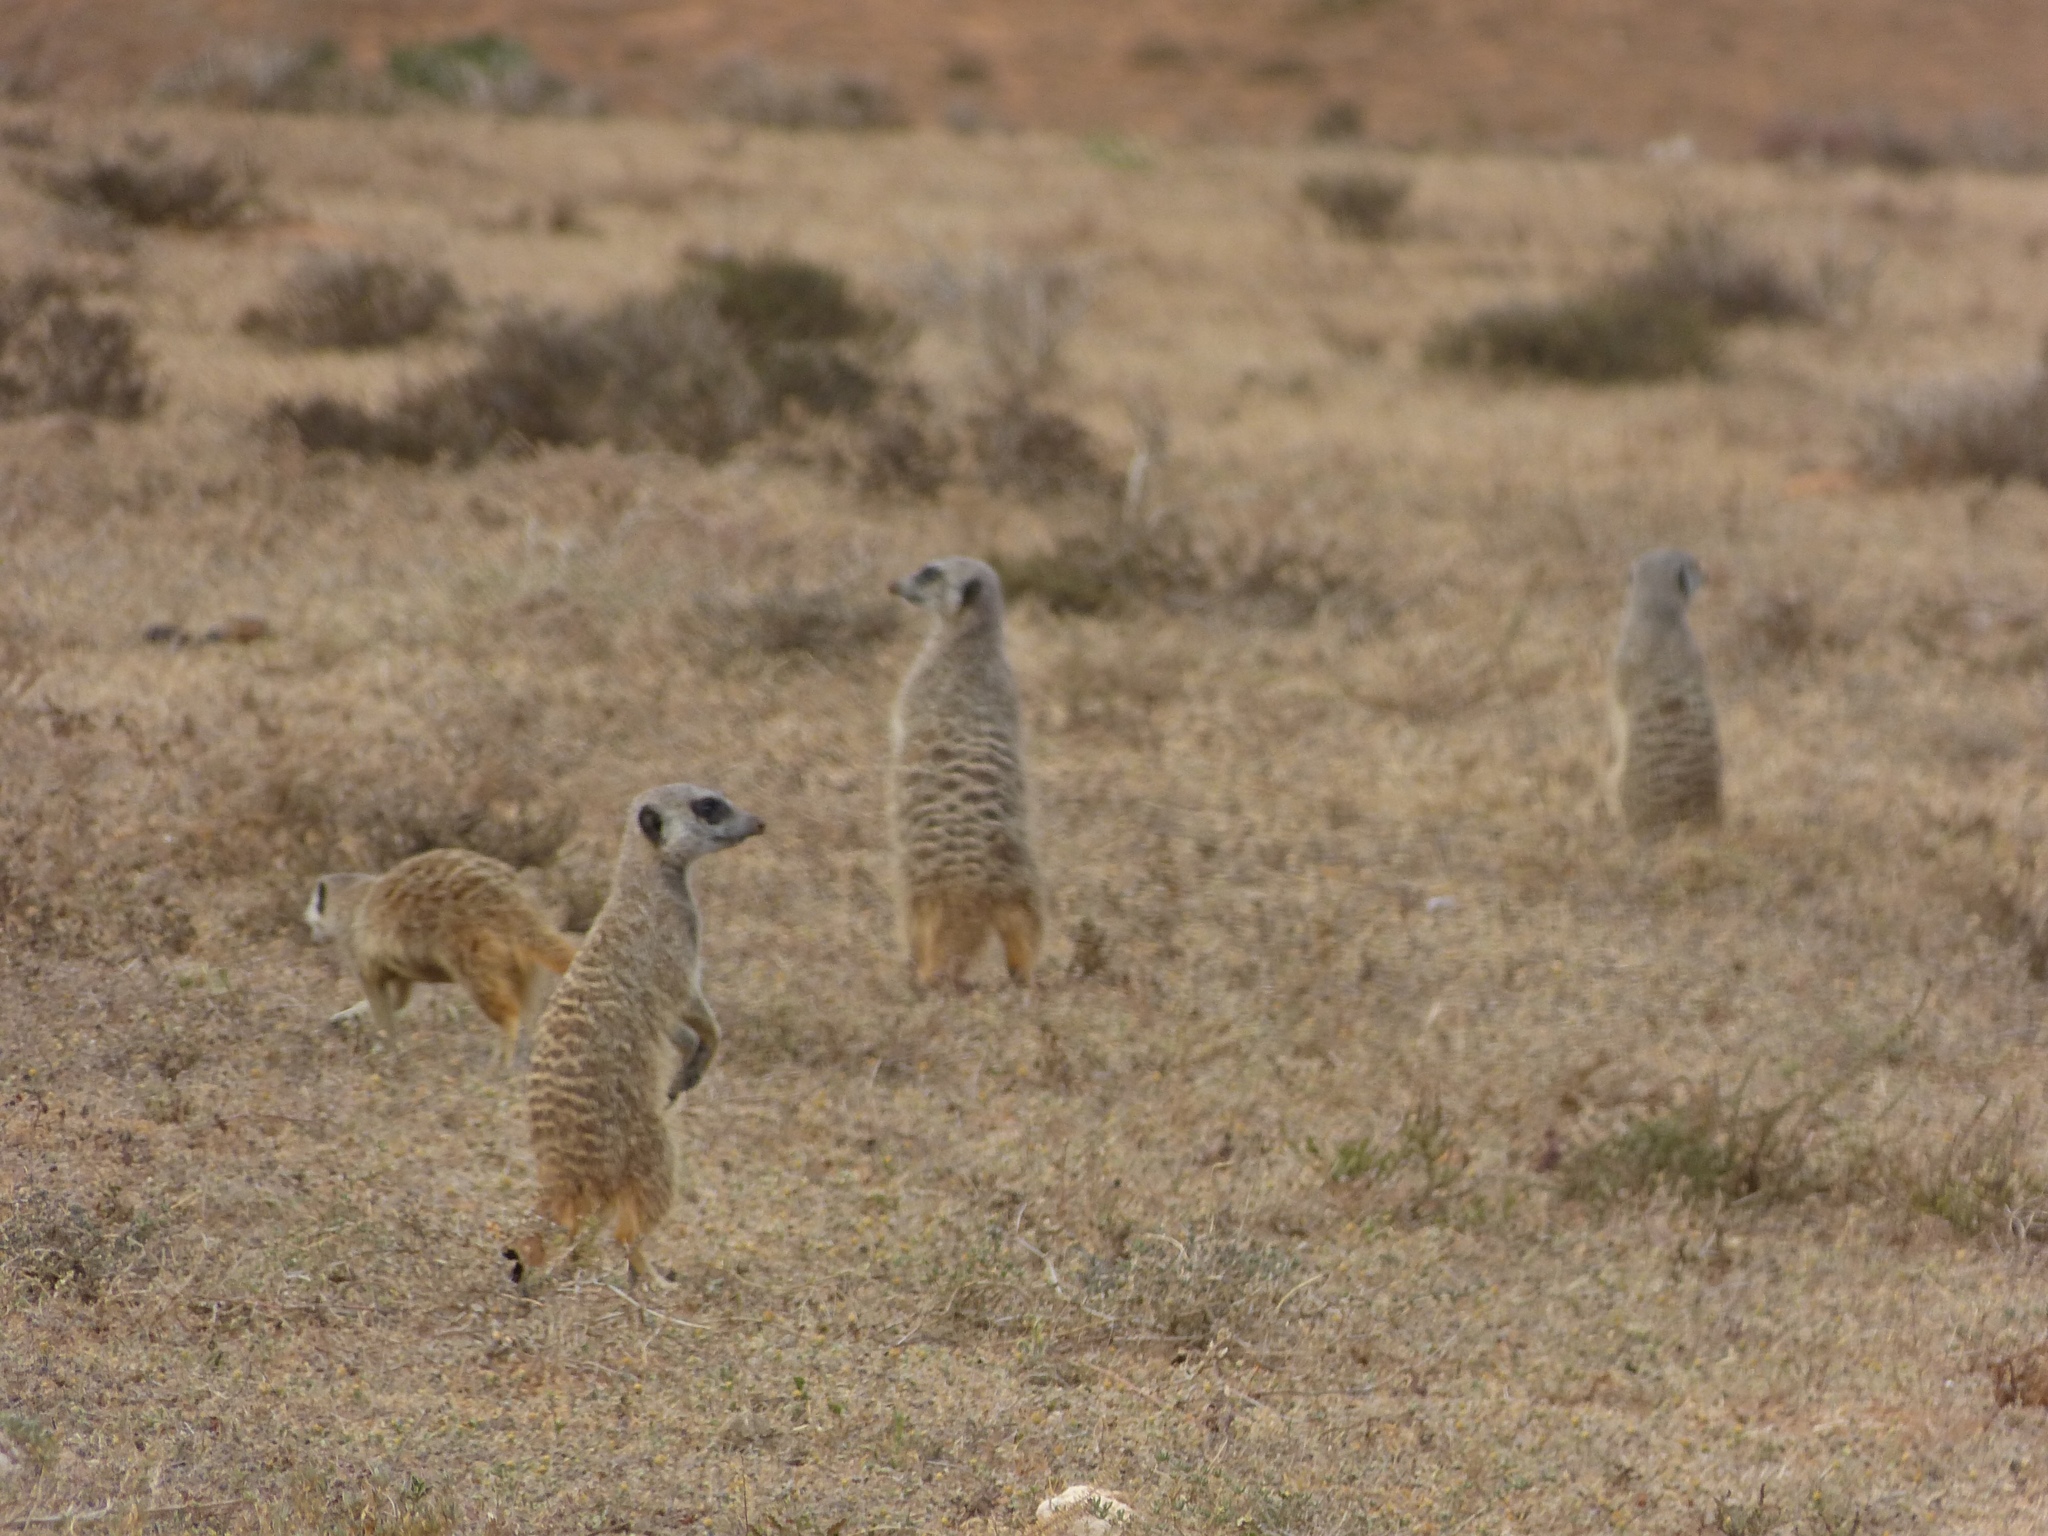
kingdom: Animalia
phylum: Chordata
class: Mammalia
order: Carnivora
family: Herpestidae
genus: Suricata
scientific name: Suricata suricatta
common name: Meerkat
